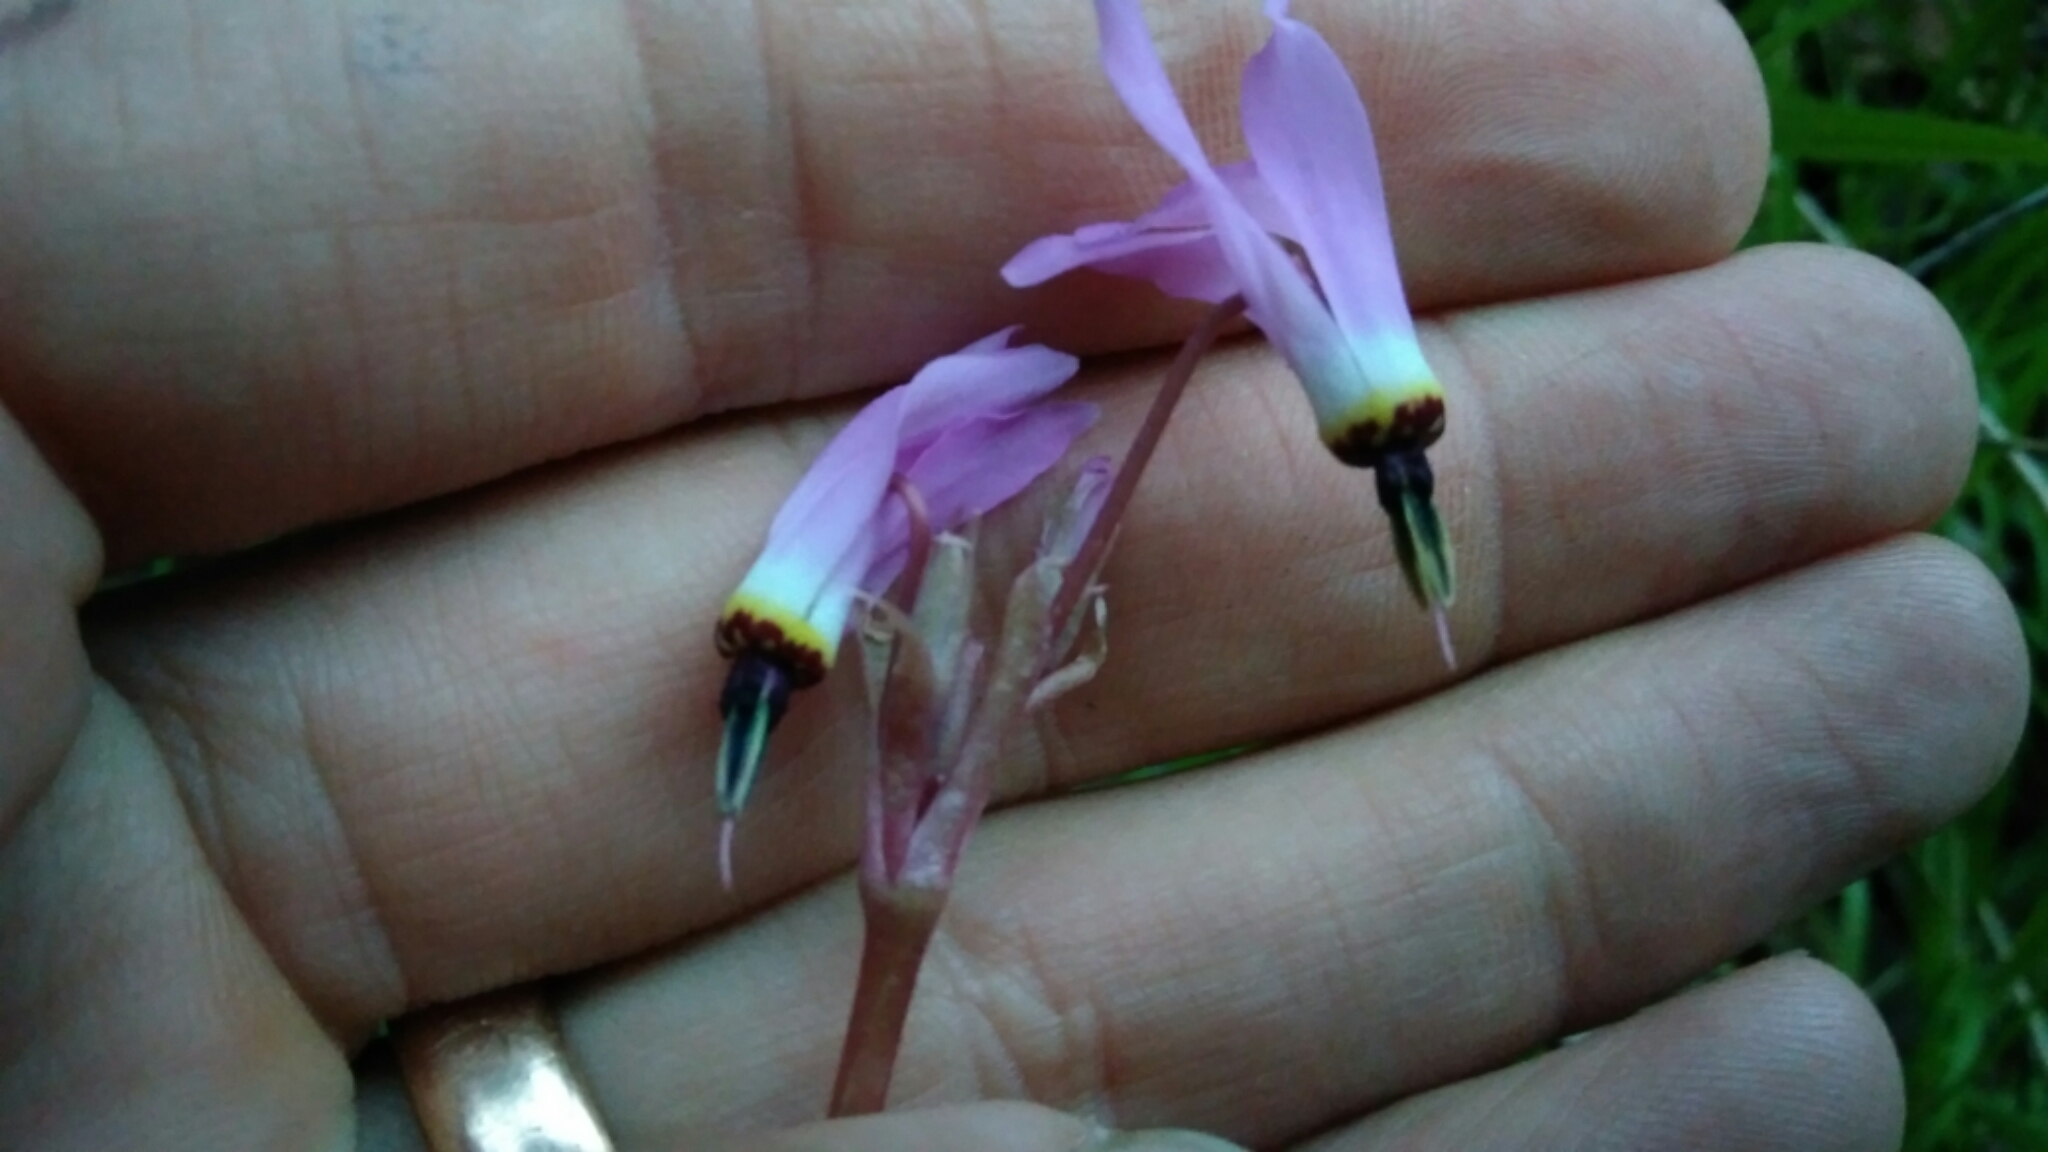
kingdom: Plantae
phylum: Tracheophyta
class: Magnoliopsida
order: Ericales
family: Primulaceae
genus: Dodecatheon
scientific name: Dodecatheon hendersonii
